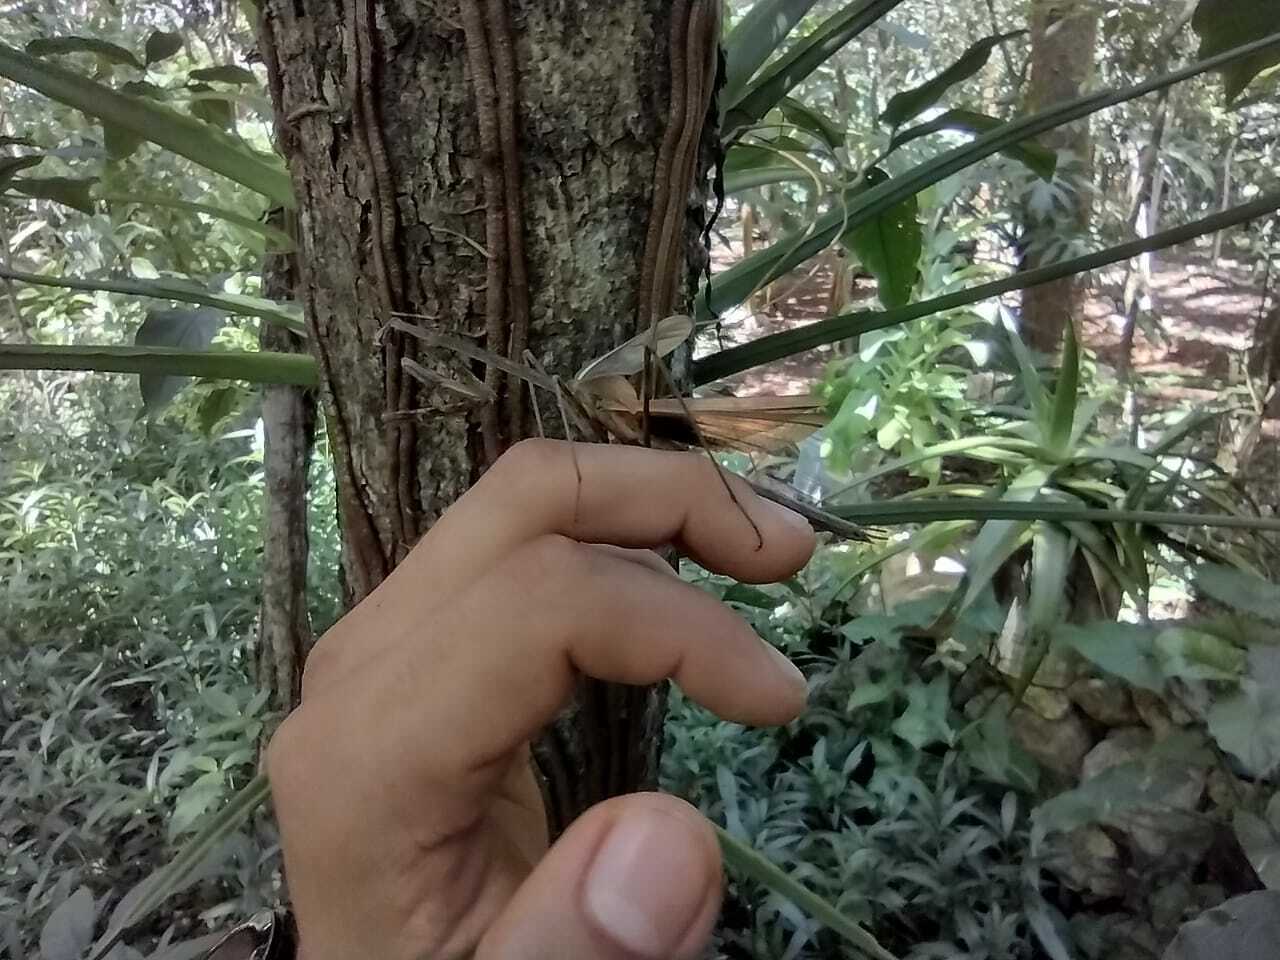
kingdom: Animalia
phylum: Arthropoda
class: Insecta
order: Mantodea
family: Mantidae
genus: Phasmomantis
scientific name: Phasmomantis sumichrasti
